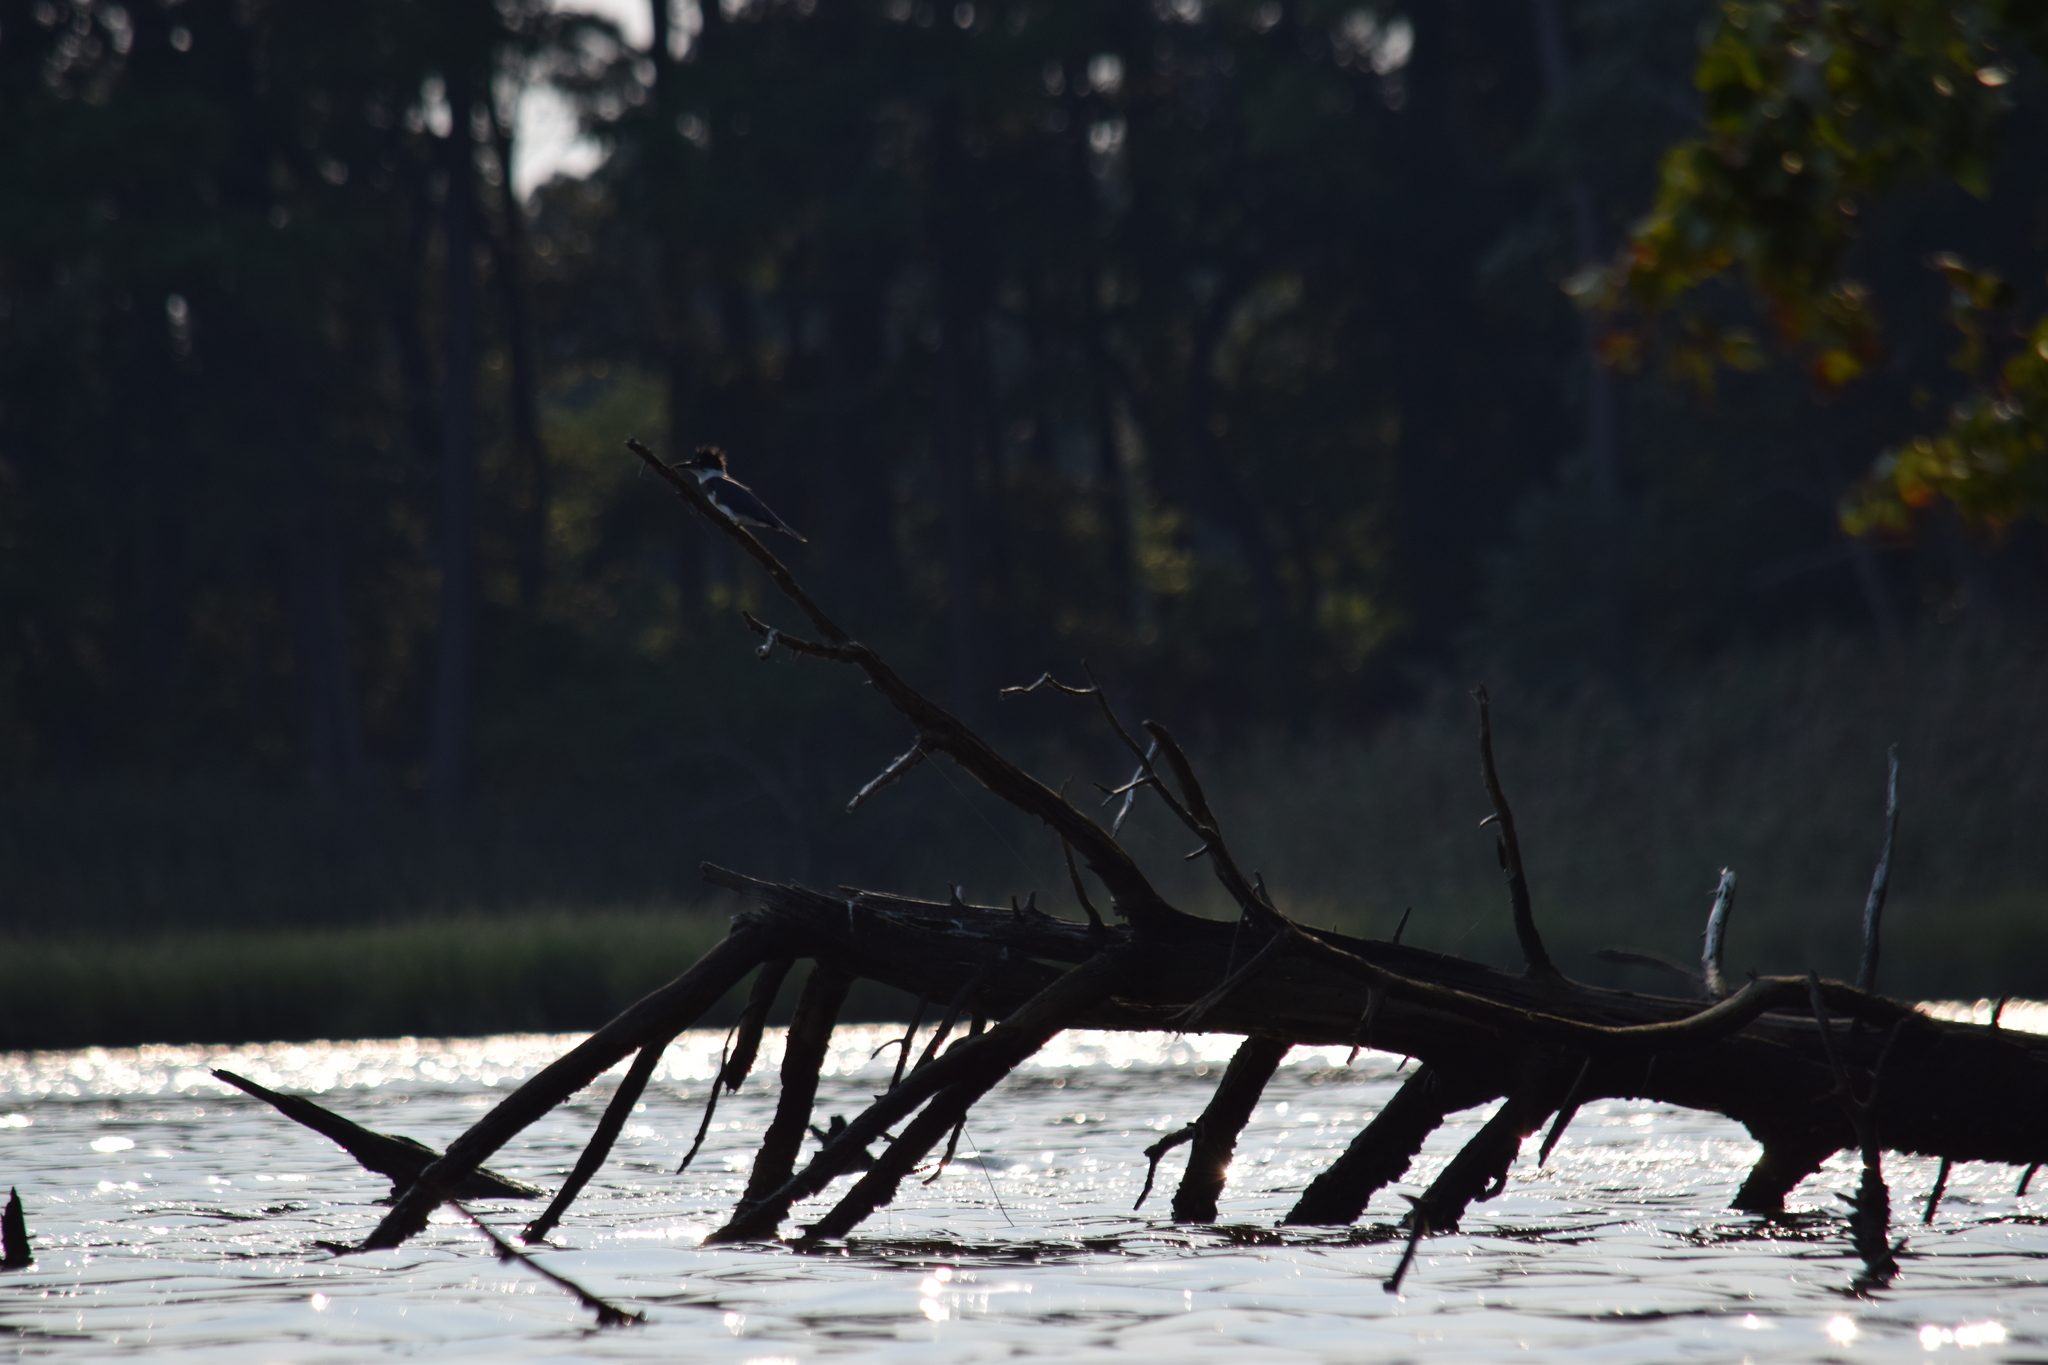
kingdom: Animalia
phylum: Chordata
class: Aves
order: Coraciiformes
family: Alcedinidae
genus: Megaceryle
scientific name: Megaceryle alcyon
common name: Belted kingfisher
